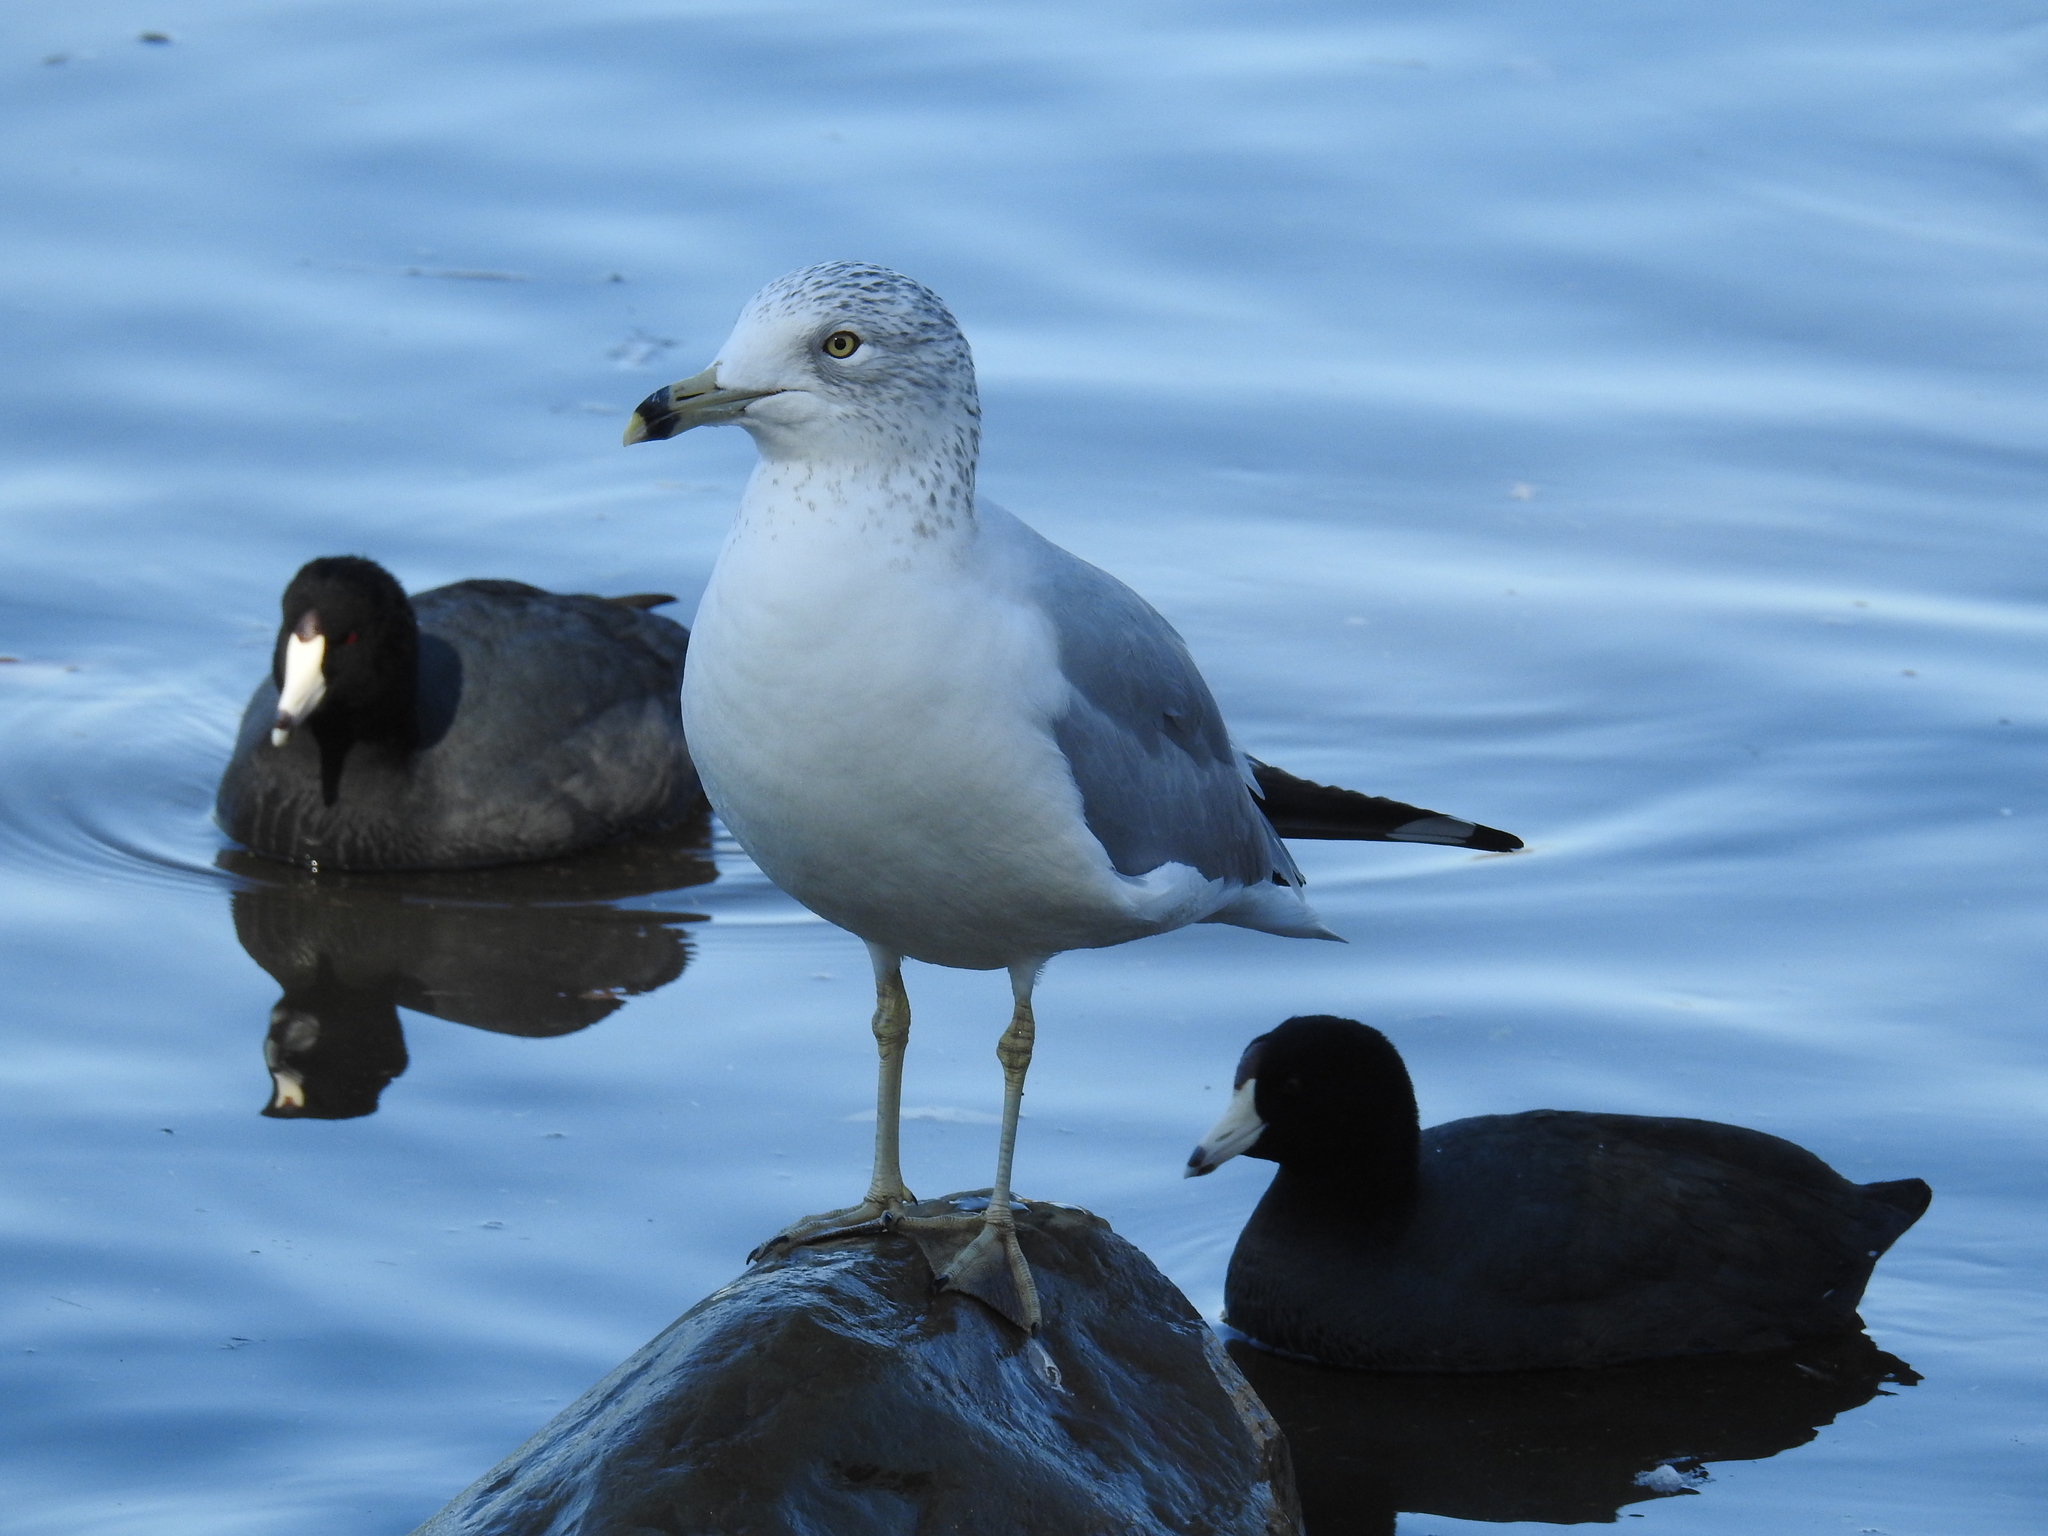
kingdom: Animalia
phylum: Chordata
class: Aves
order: Charadriiformes
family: Laridae
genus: Larus
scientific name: Larus delawarensis
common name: Ring-billed gull
